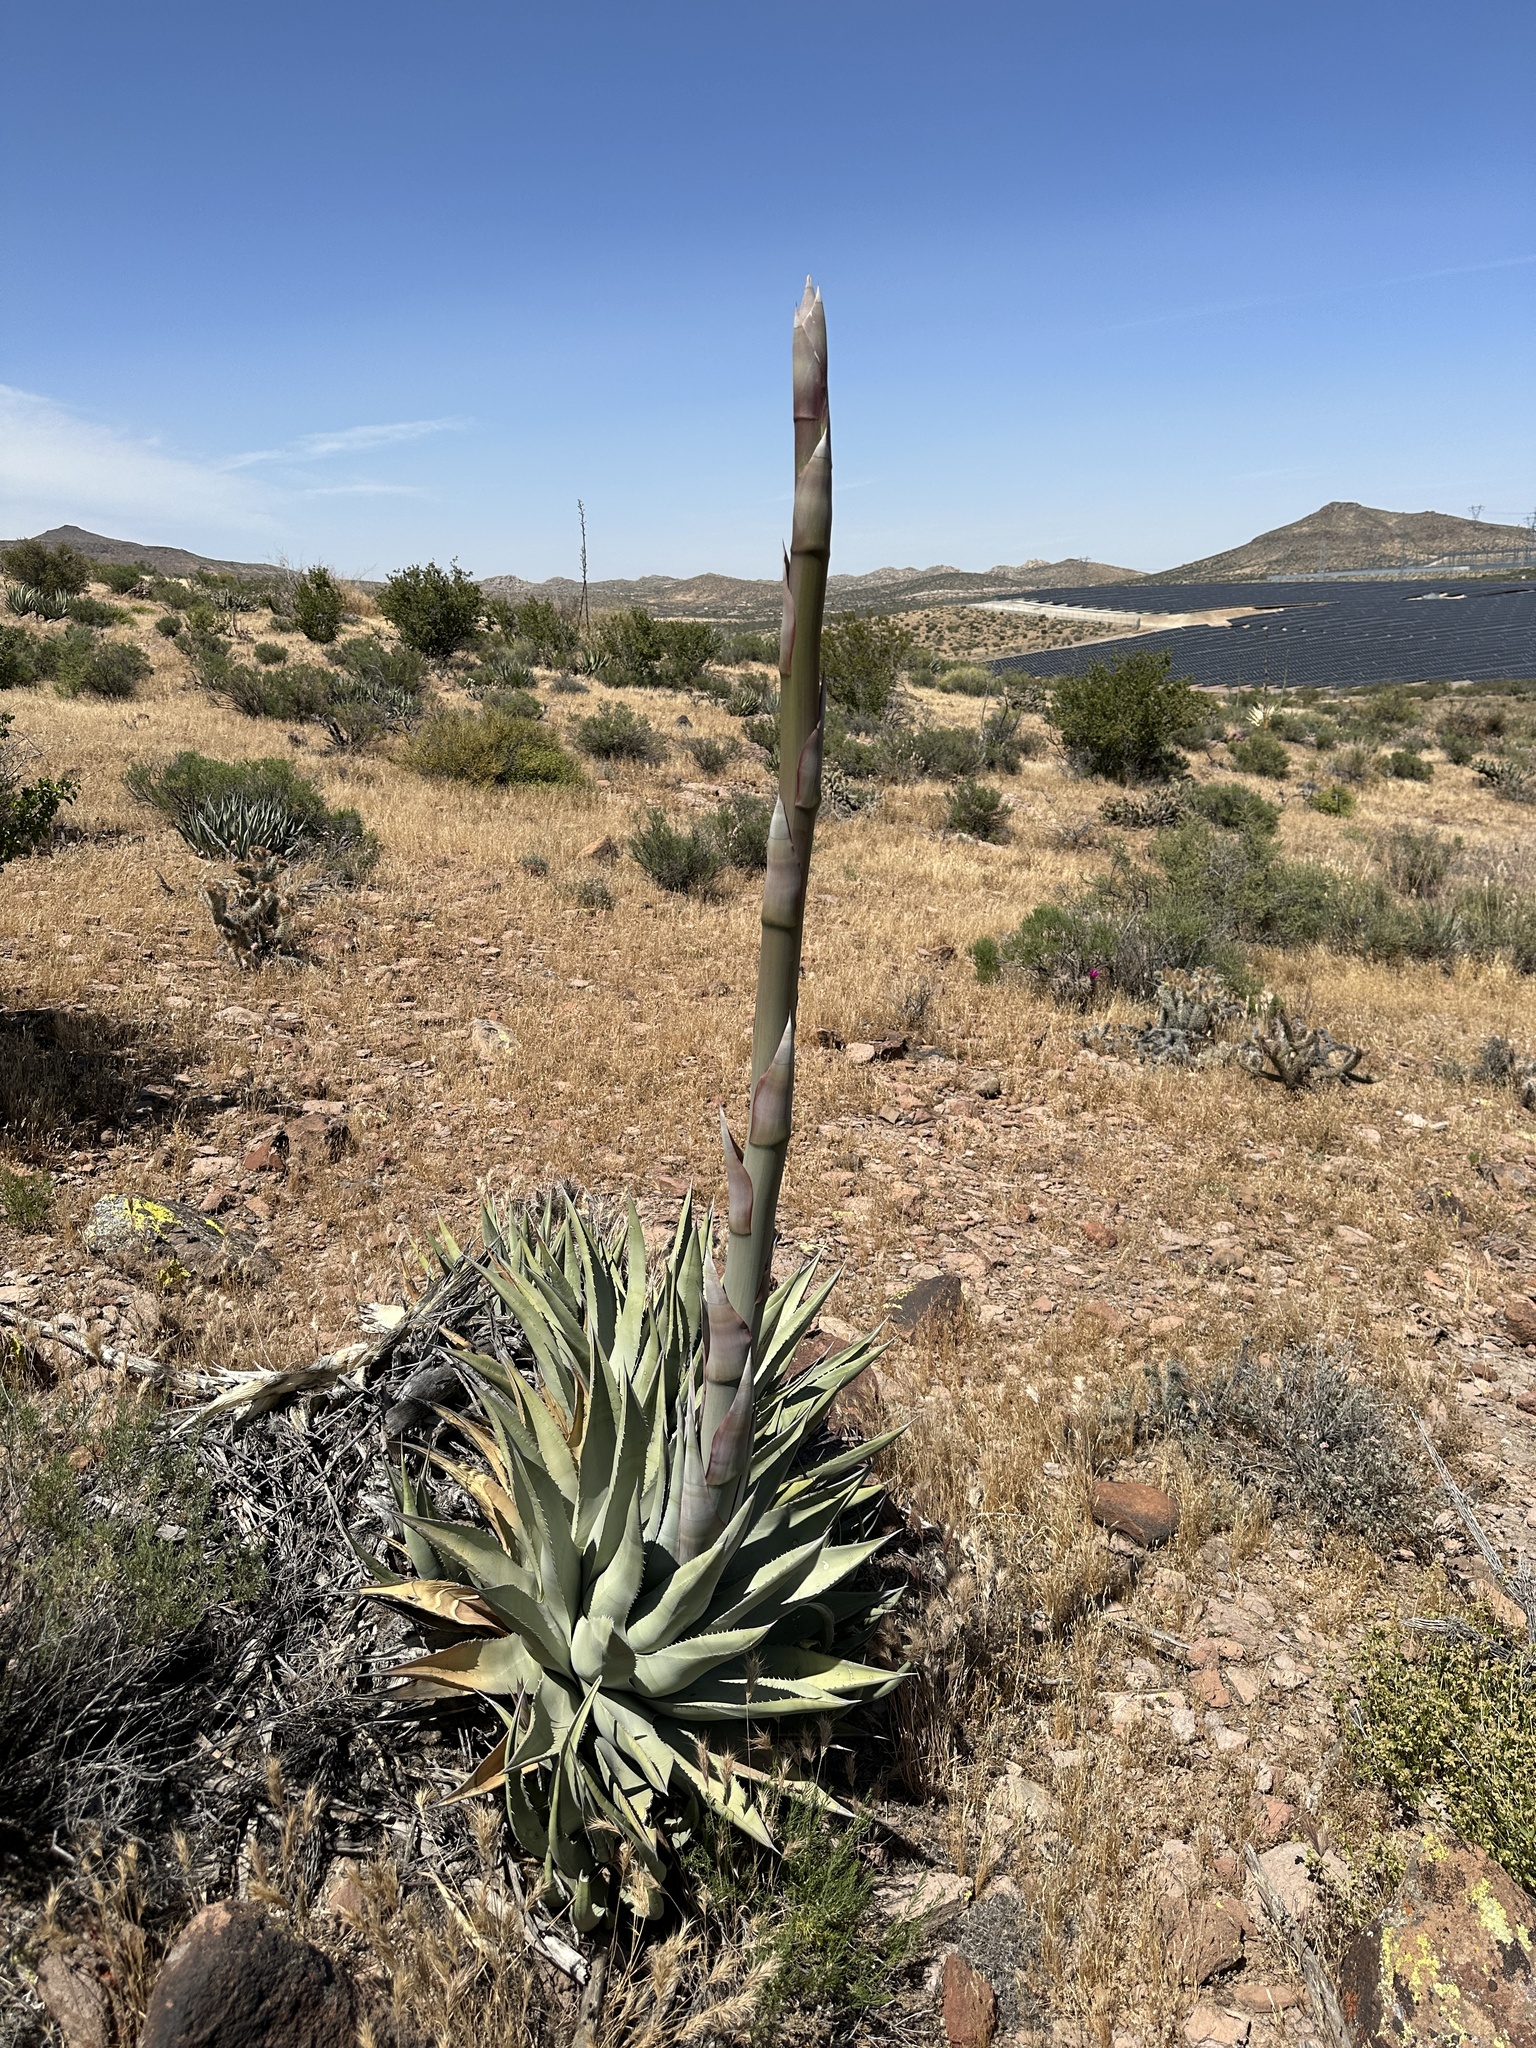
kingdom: Plantae
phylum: Tracheophyta
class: Liliopsida
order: Asparagales
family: Asparagaceae
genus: Agave
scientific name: Agave deserti
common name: Desert agave
